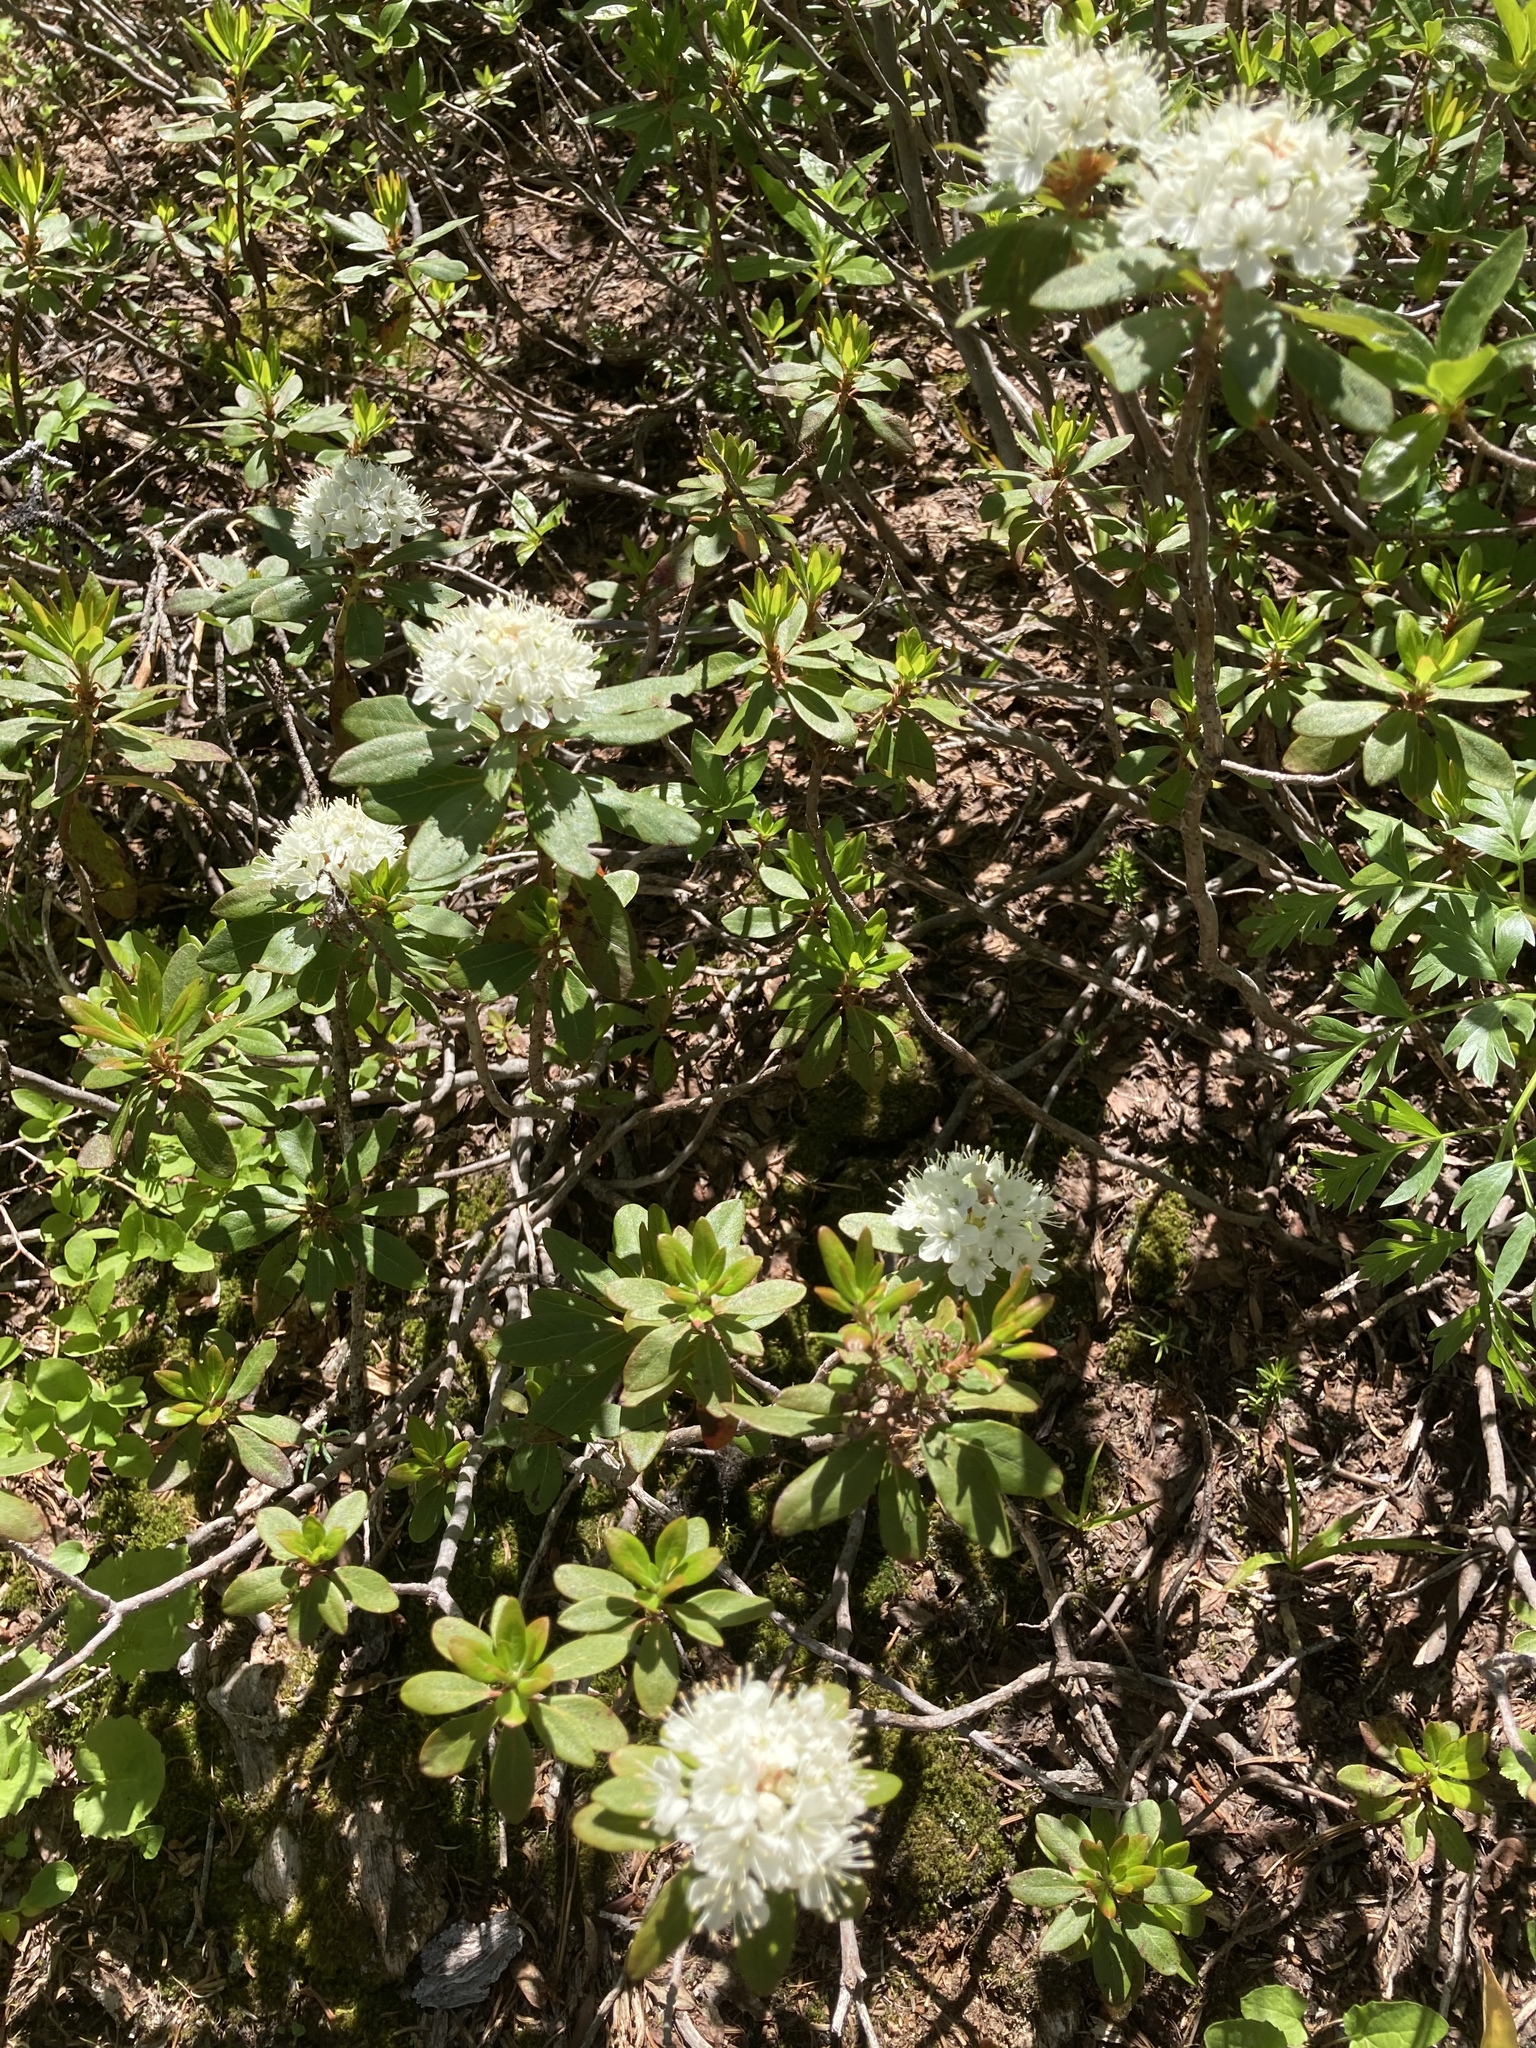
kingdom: Plantae
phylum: Tracheophyta
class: Magnoliopsida
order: Ericales
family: Ericaceae
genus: Rhododendron
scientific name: Rhododendron columbianum
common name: Western labrador tea
